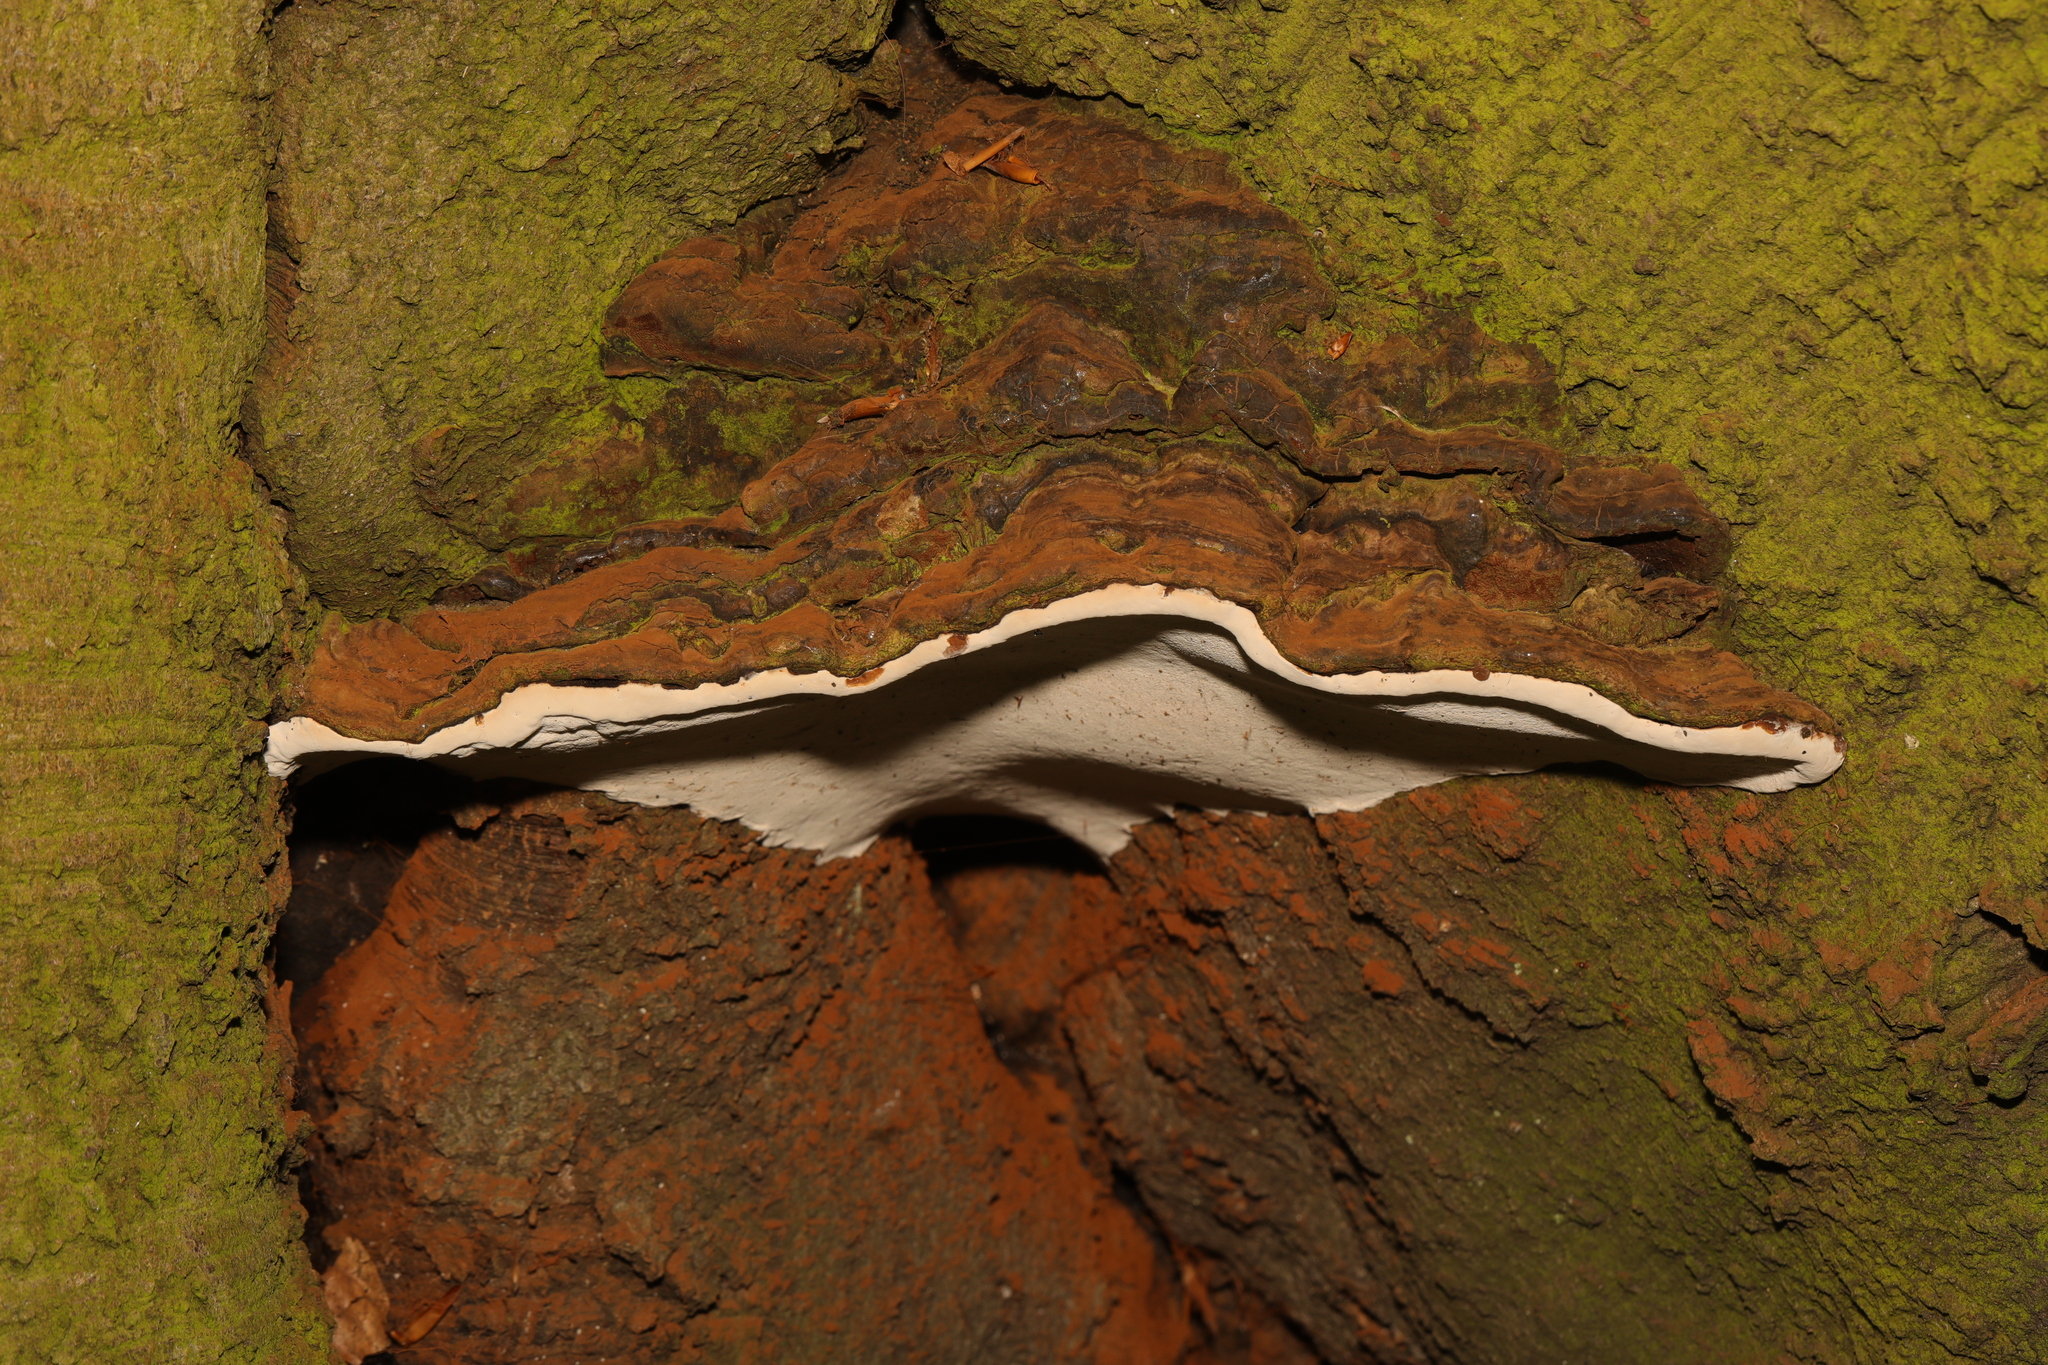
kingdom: Fungi
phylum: Basidiomycota
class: Agaricomycetes
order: Polyporales
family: Polyporaceae
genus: Ganoderma
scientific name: Ganoderma
